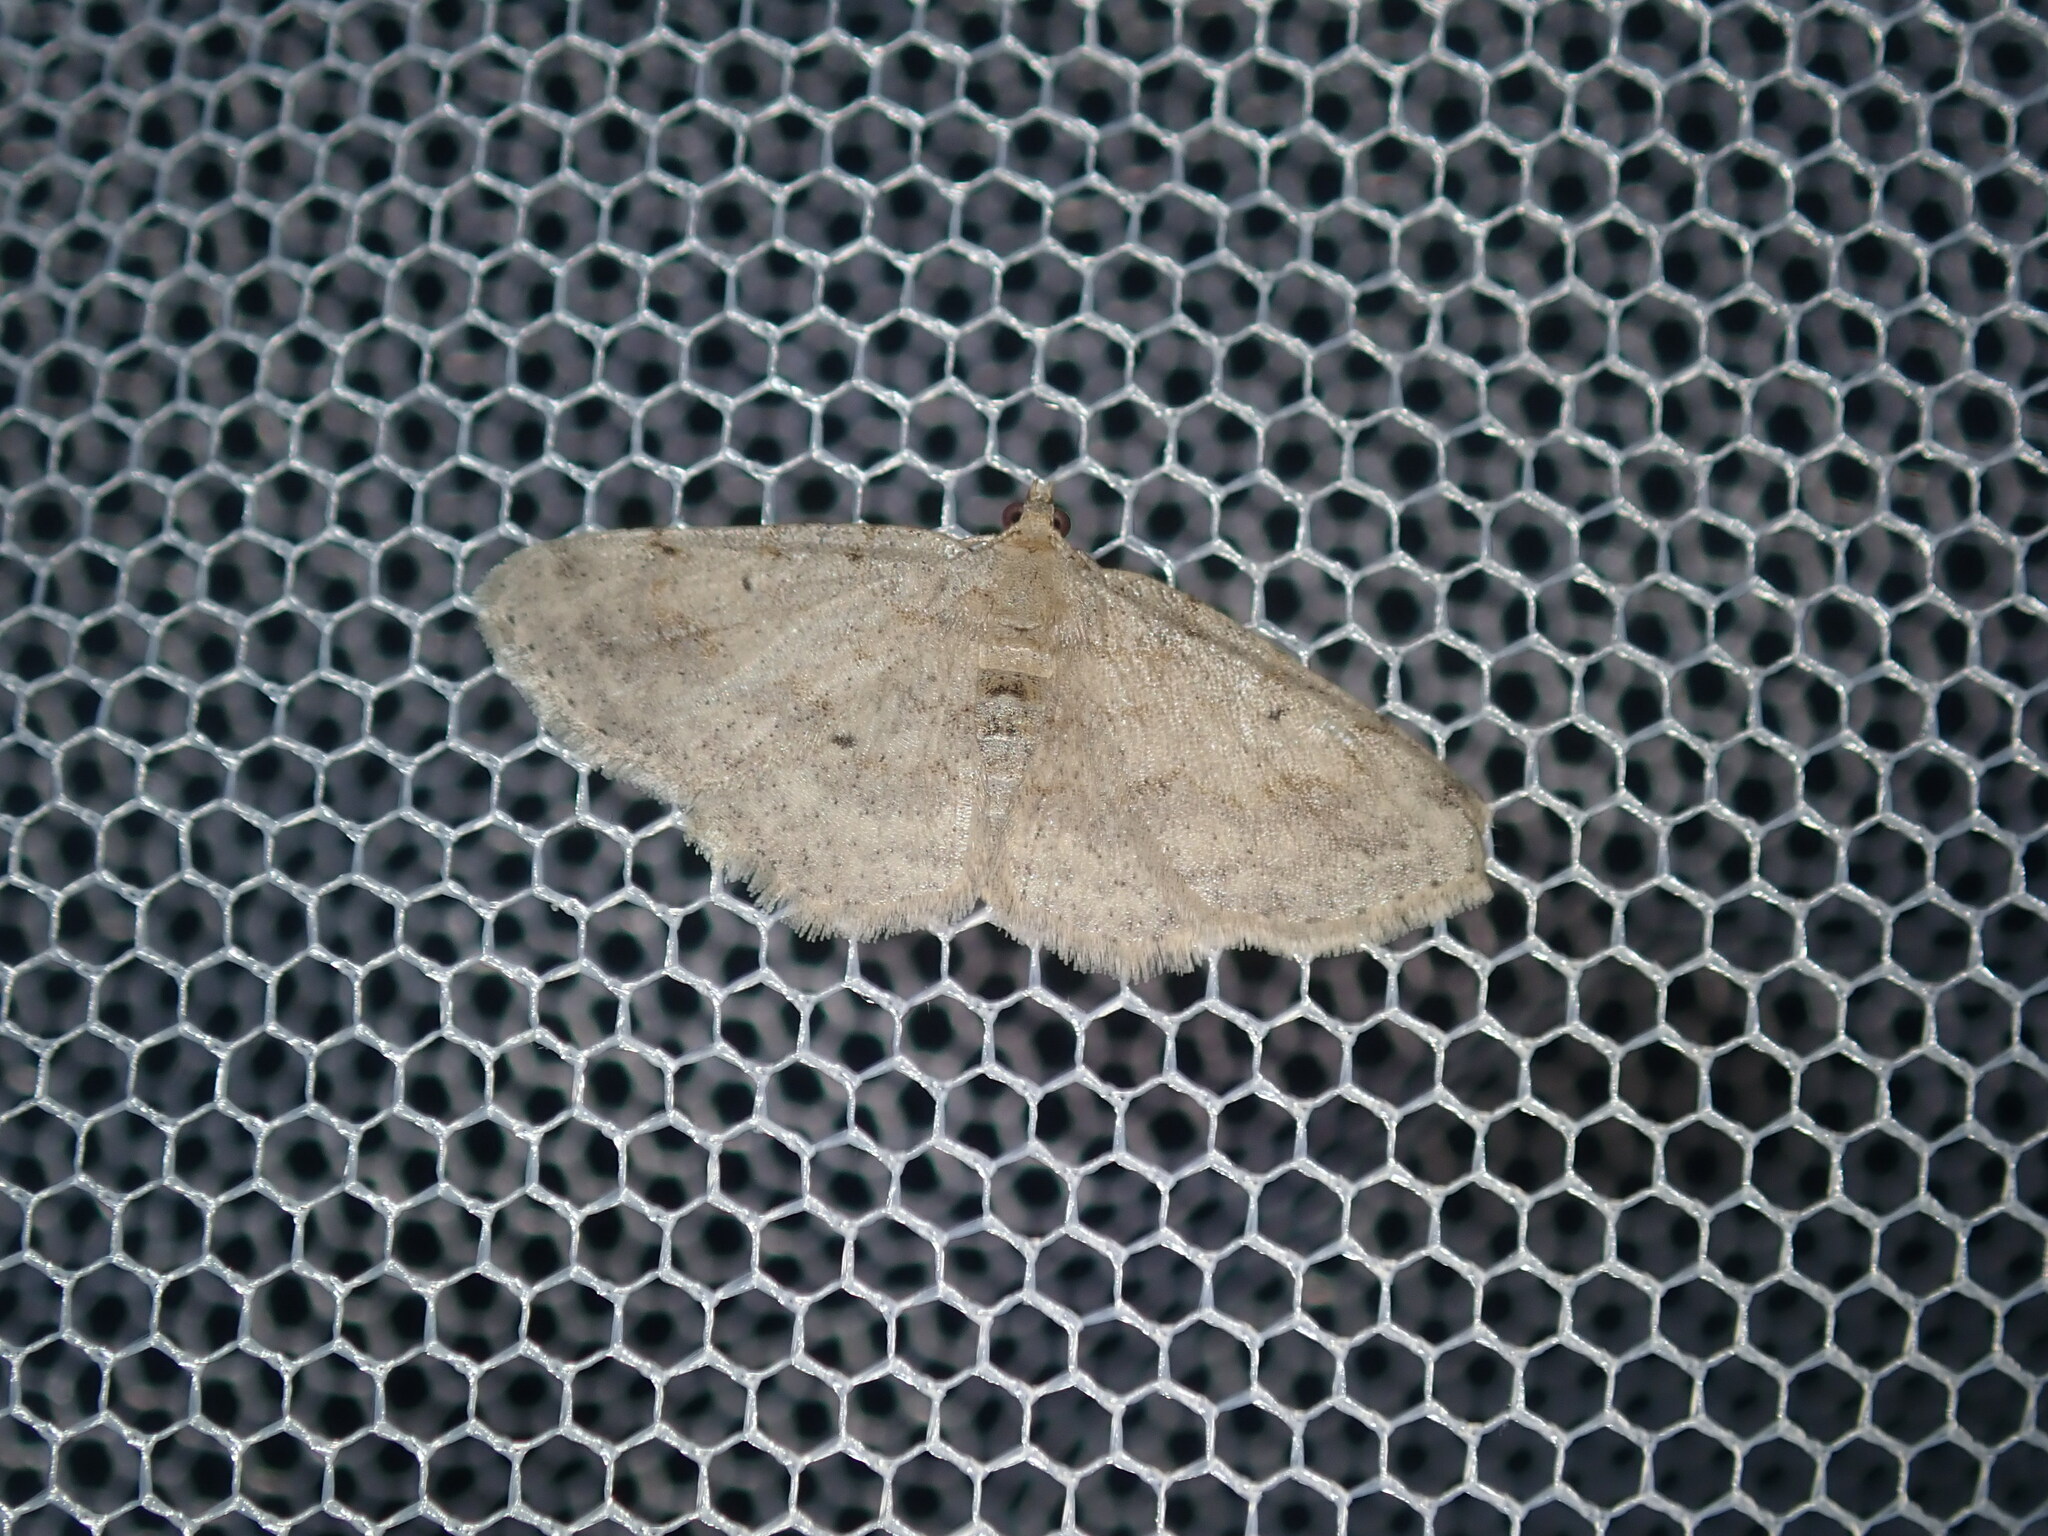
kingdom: Animalia
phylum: Arthropoda
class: Insecta
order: Lepidoptera
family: Geometridae
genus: Ectropis
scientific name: Ectropis argalea
